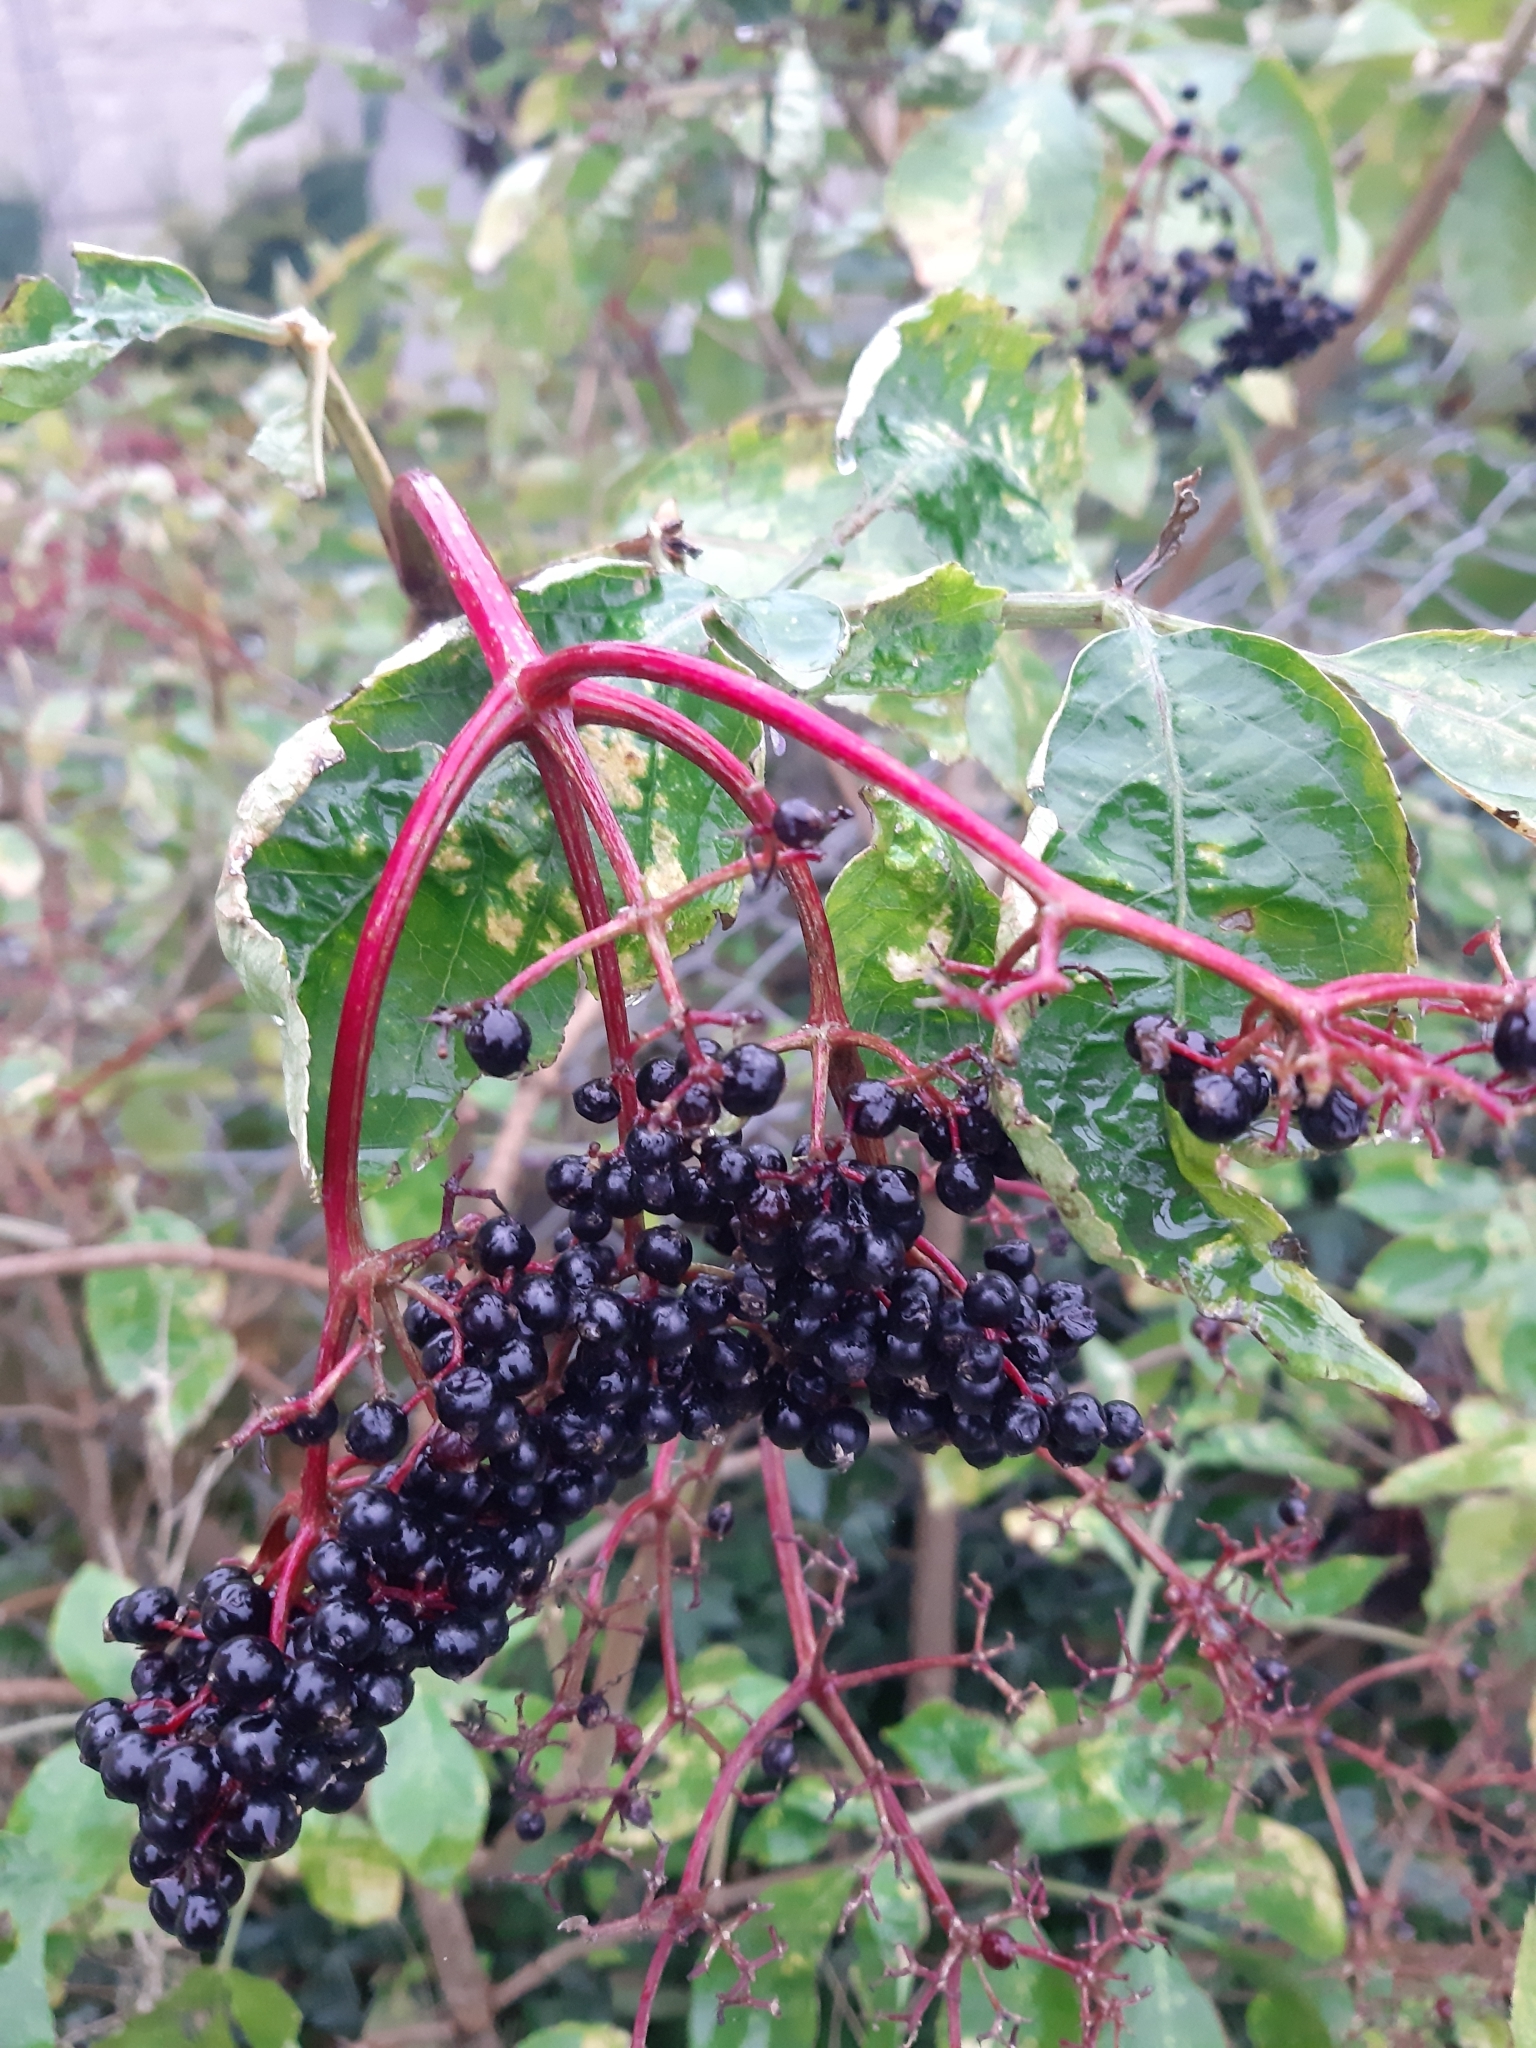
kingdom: Plantae
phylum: Tracheophyta
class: Magnoliopsida
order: Dipsacales
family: Viburnaceae
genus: Sambucus
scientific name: Sambucus nigra
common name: Elder
